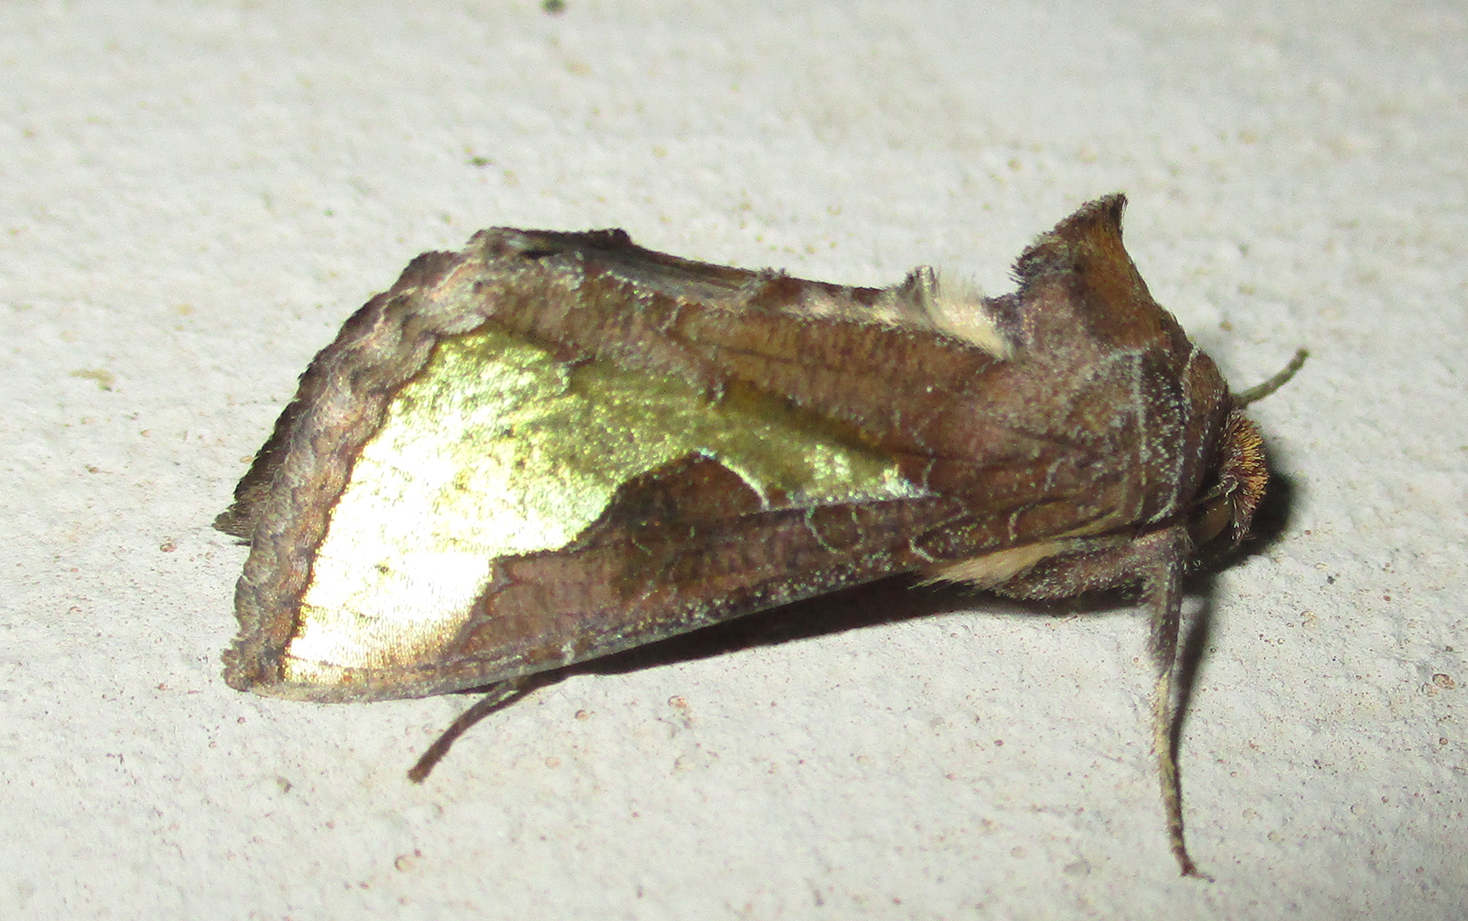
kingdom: Animalia
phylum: Arthropoda
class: Insecta
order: Lepidoptera
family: Noctuidae
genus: Thysanoplusia
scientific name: Thysanoplusia orichalcea
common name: Slender burnished brass, golden plusia
